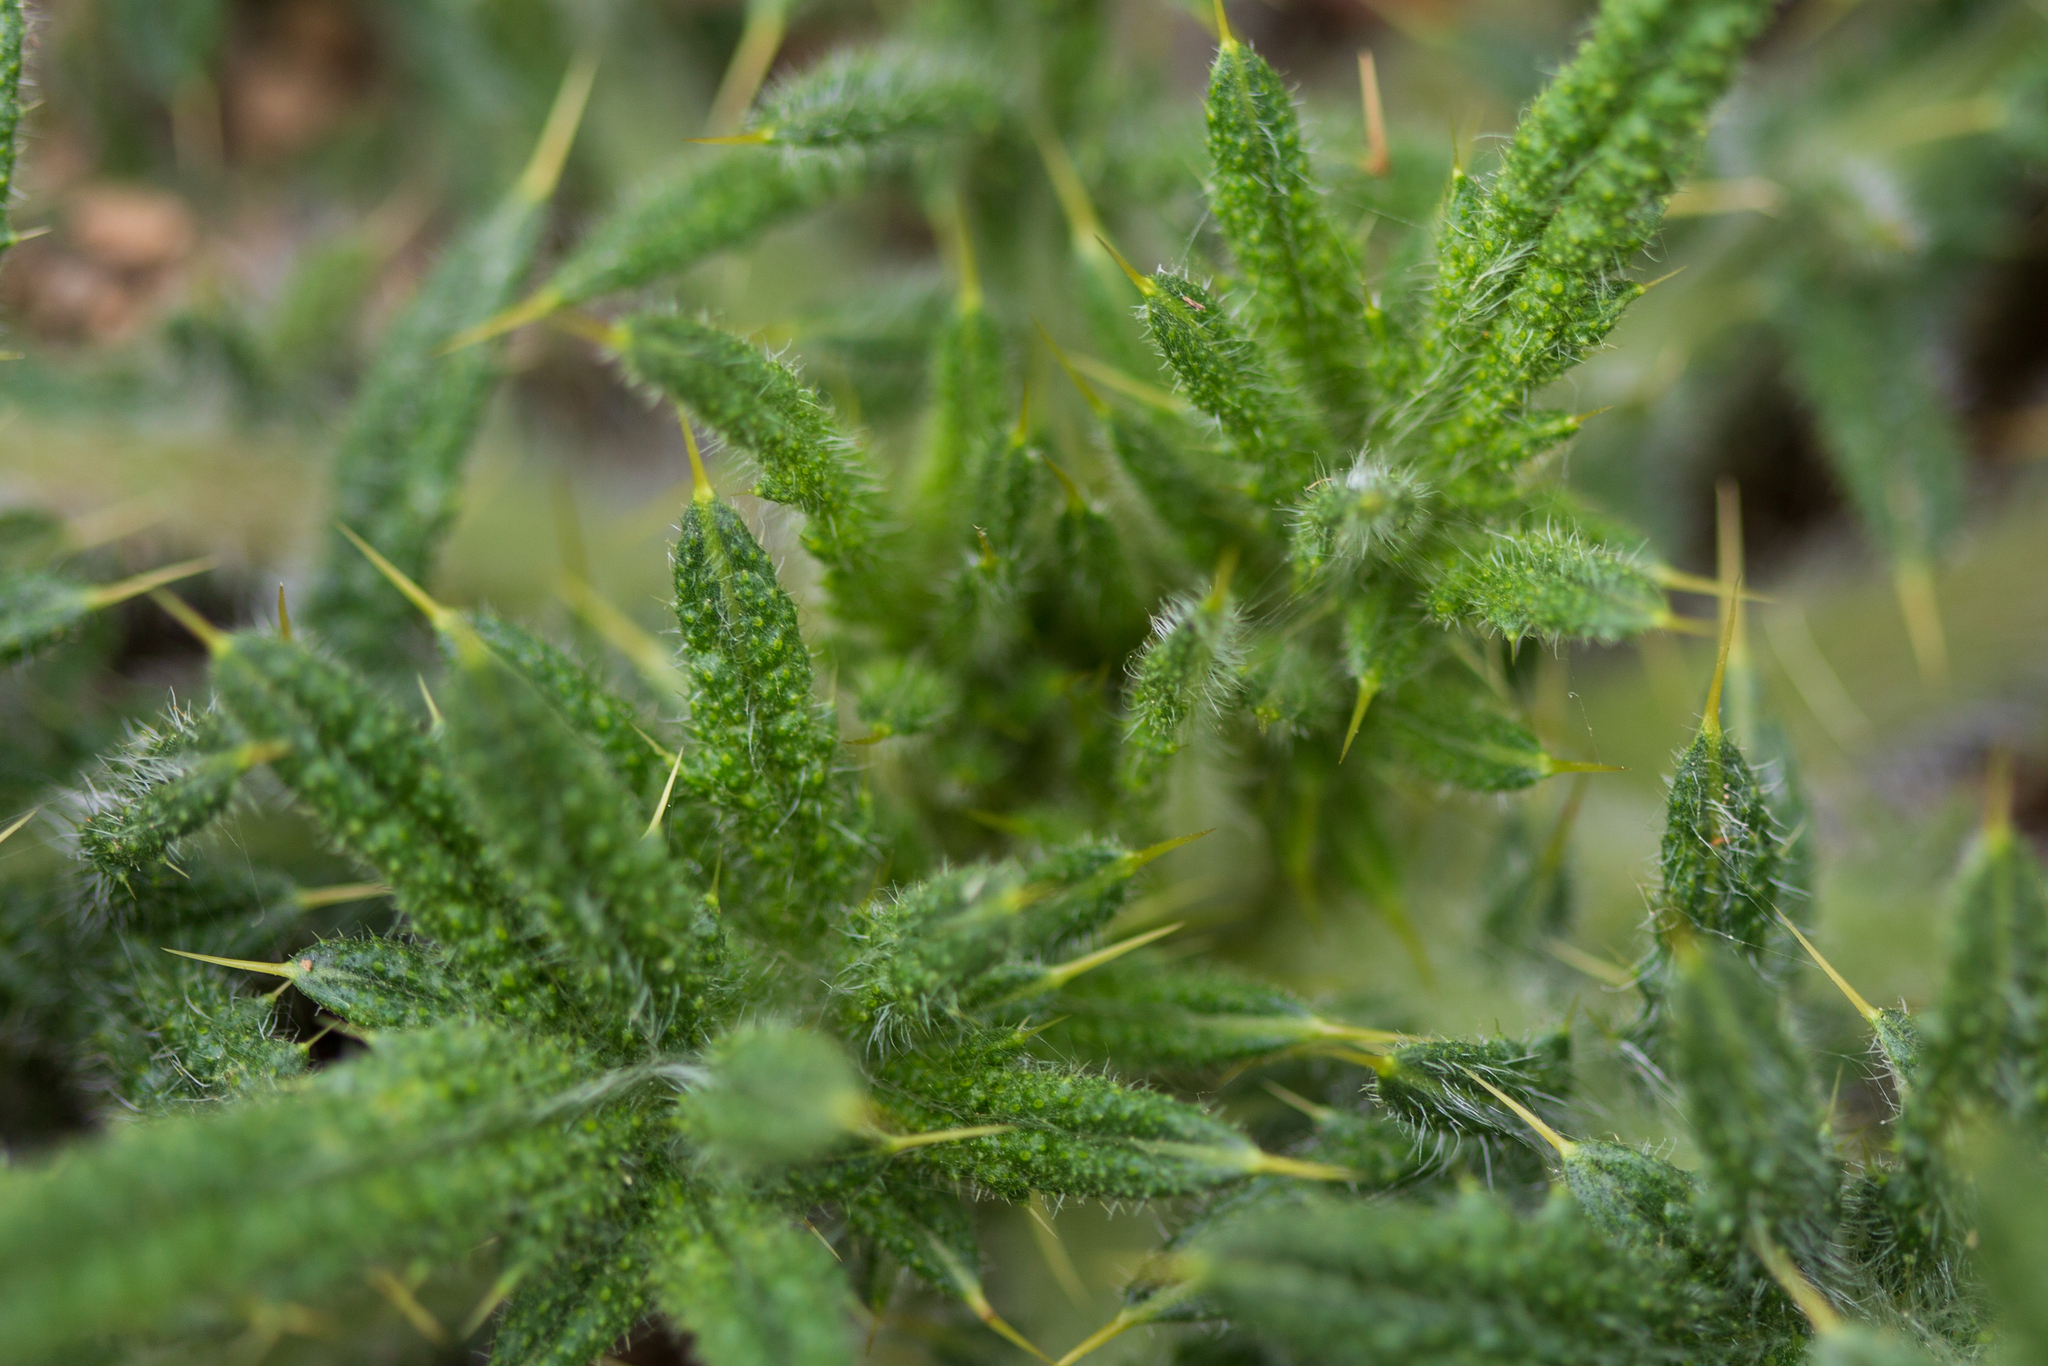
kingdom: Plantae
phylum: Tracheophyta
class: Magnoliopsida
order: Asterales
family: Asteraceae
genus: Cirsium
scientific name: Cirsium vulgare
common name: Bull thistle
